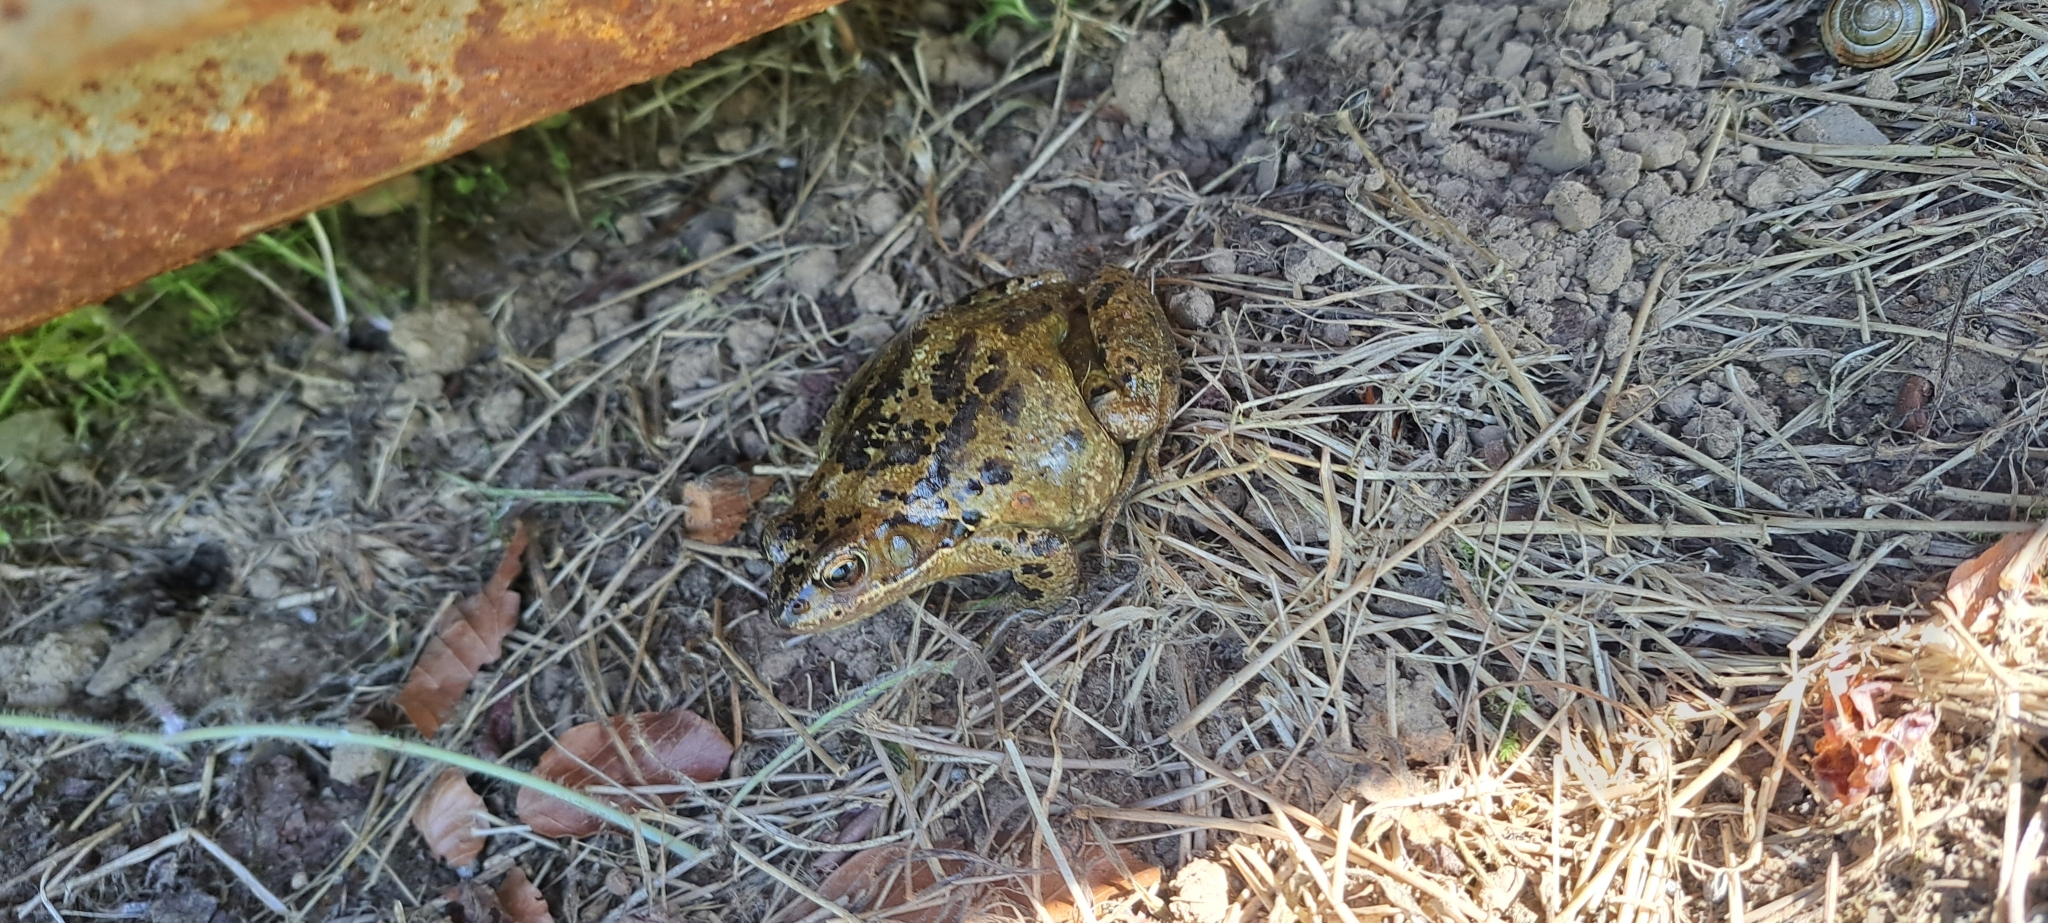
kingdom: Animalia
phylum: Chordata
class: Amphibia
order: Anura
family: Ranidae
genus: Rana
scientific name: Rana temporaria
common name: Common frog
